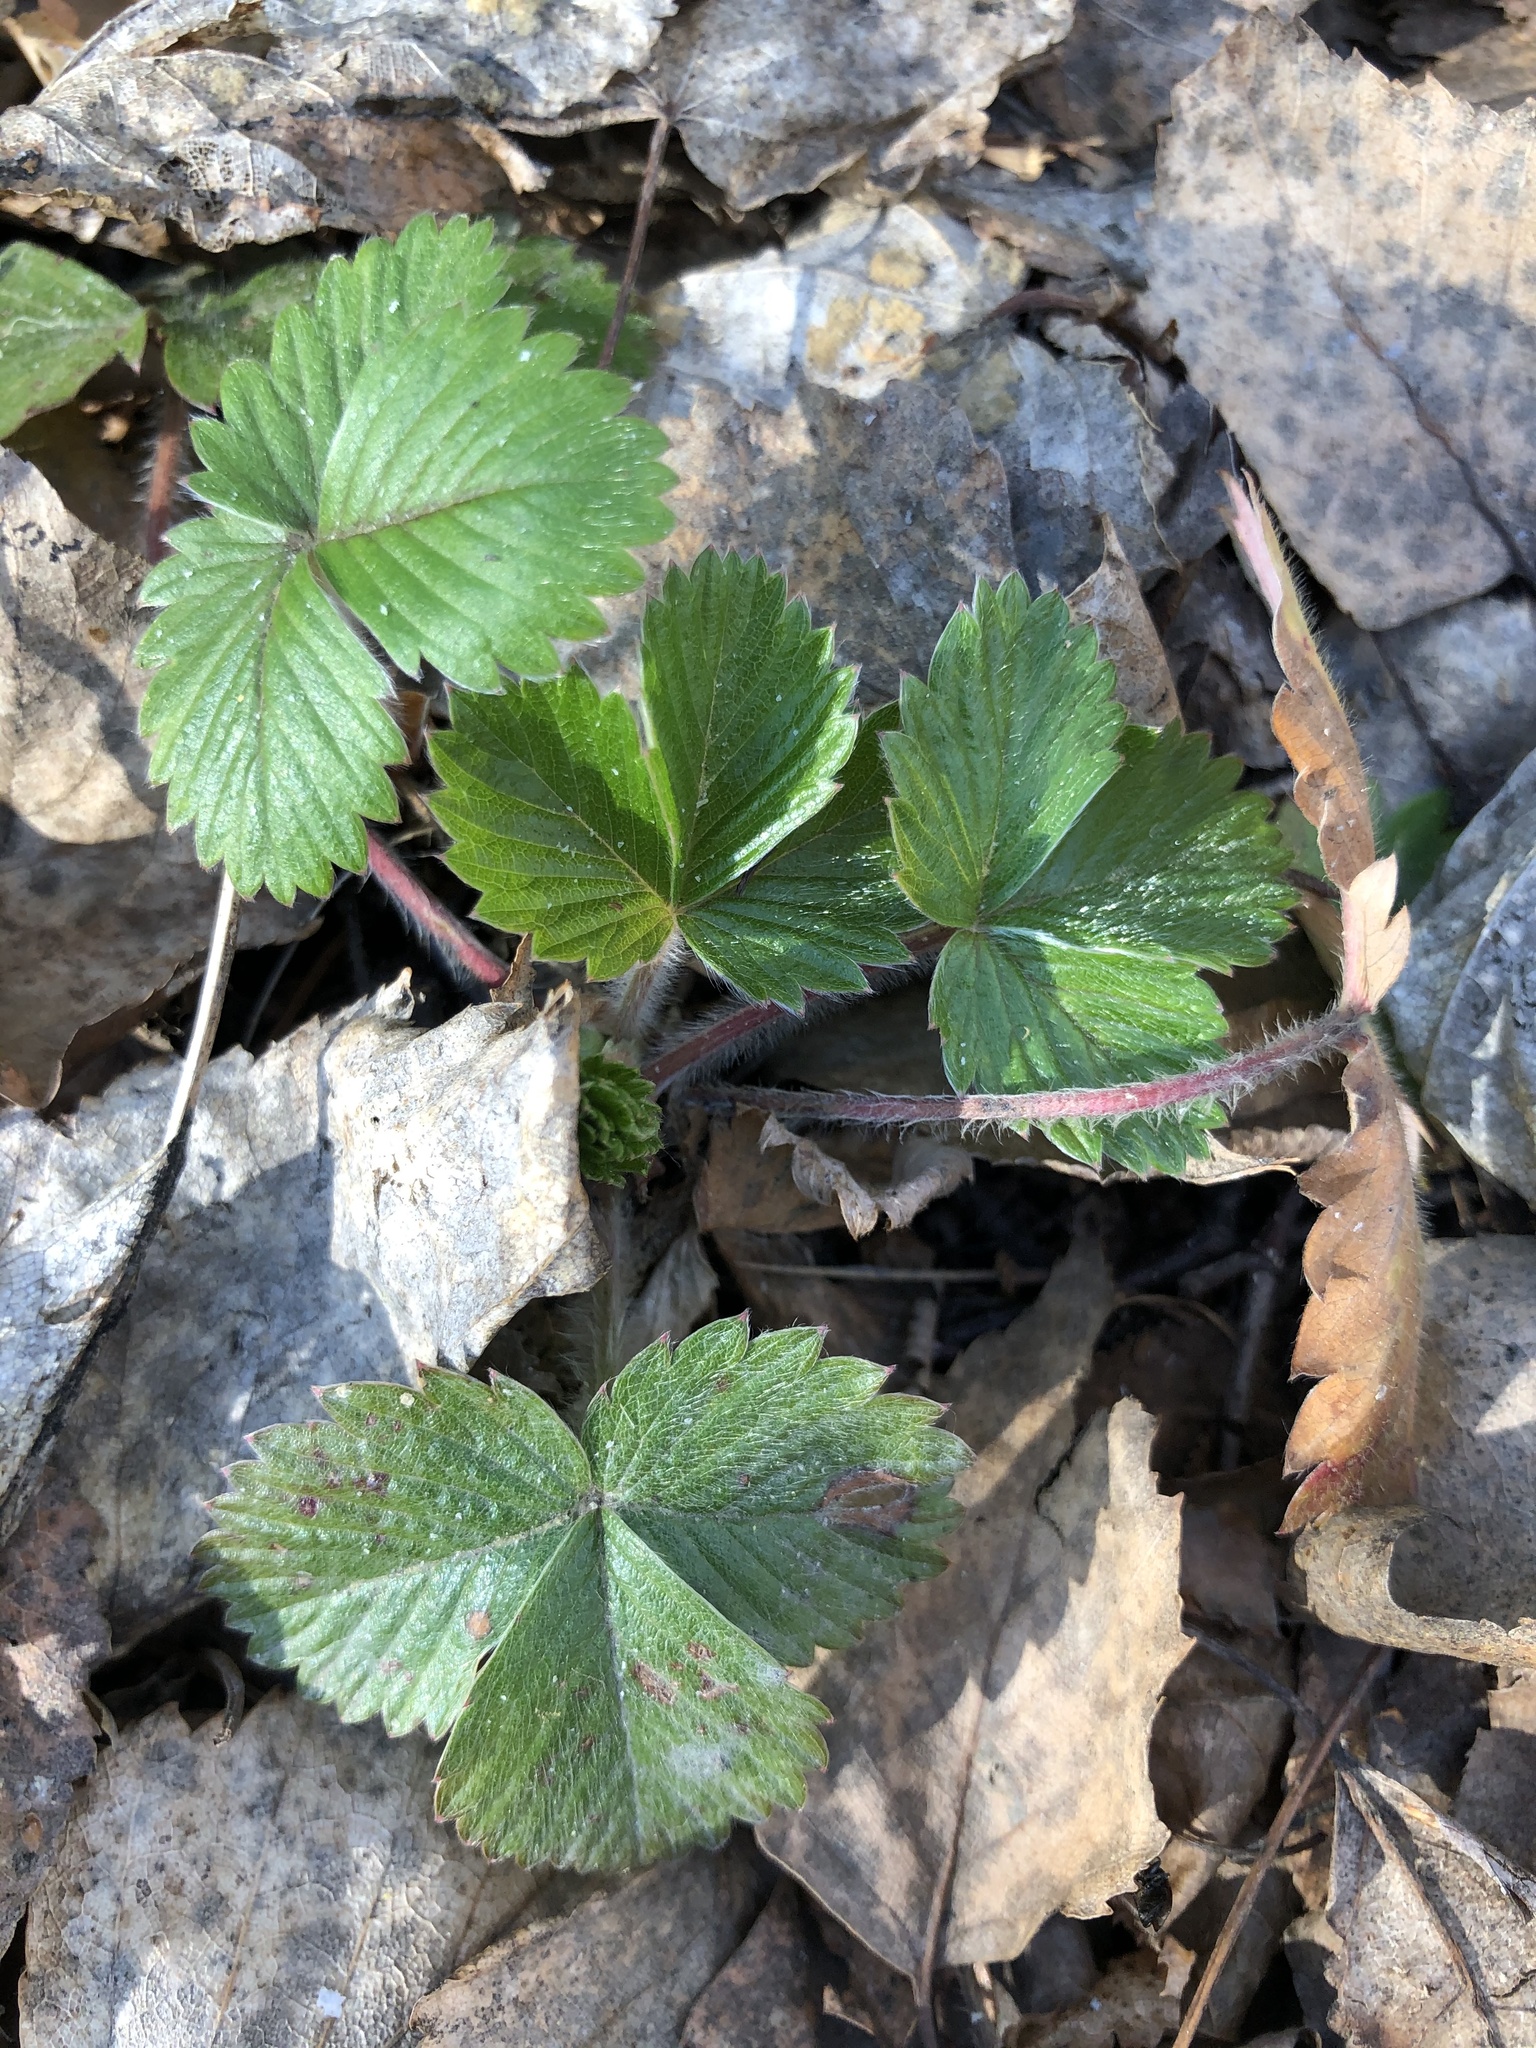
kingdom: Plantae
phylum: Tracheophyta
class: Magnoliopsida
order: Rosales
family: Rosaceae
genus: Fragaria
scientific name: Fragaria vesca
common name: Wild strawberry
